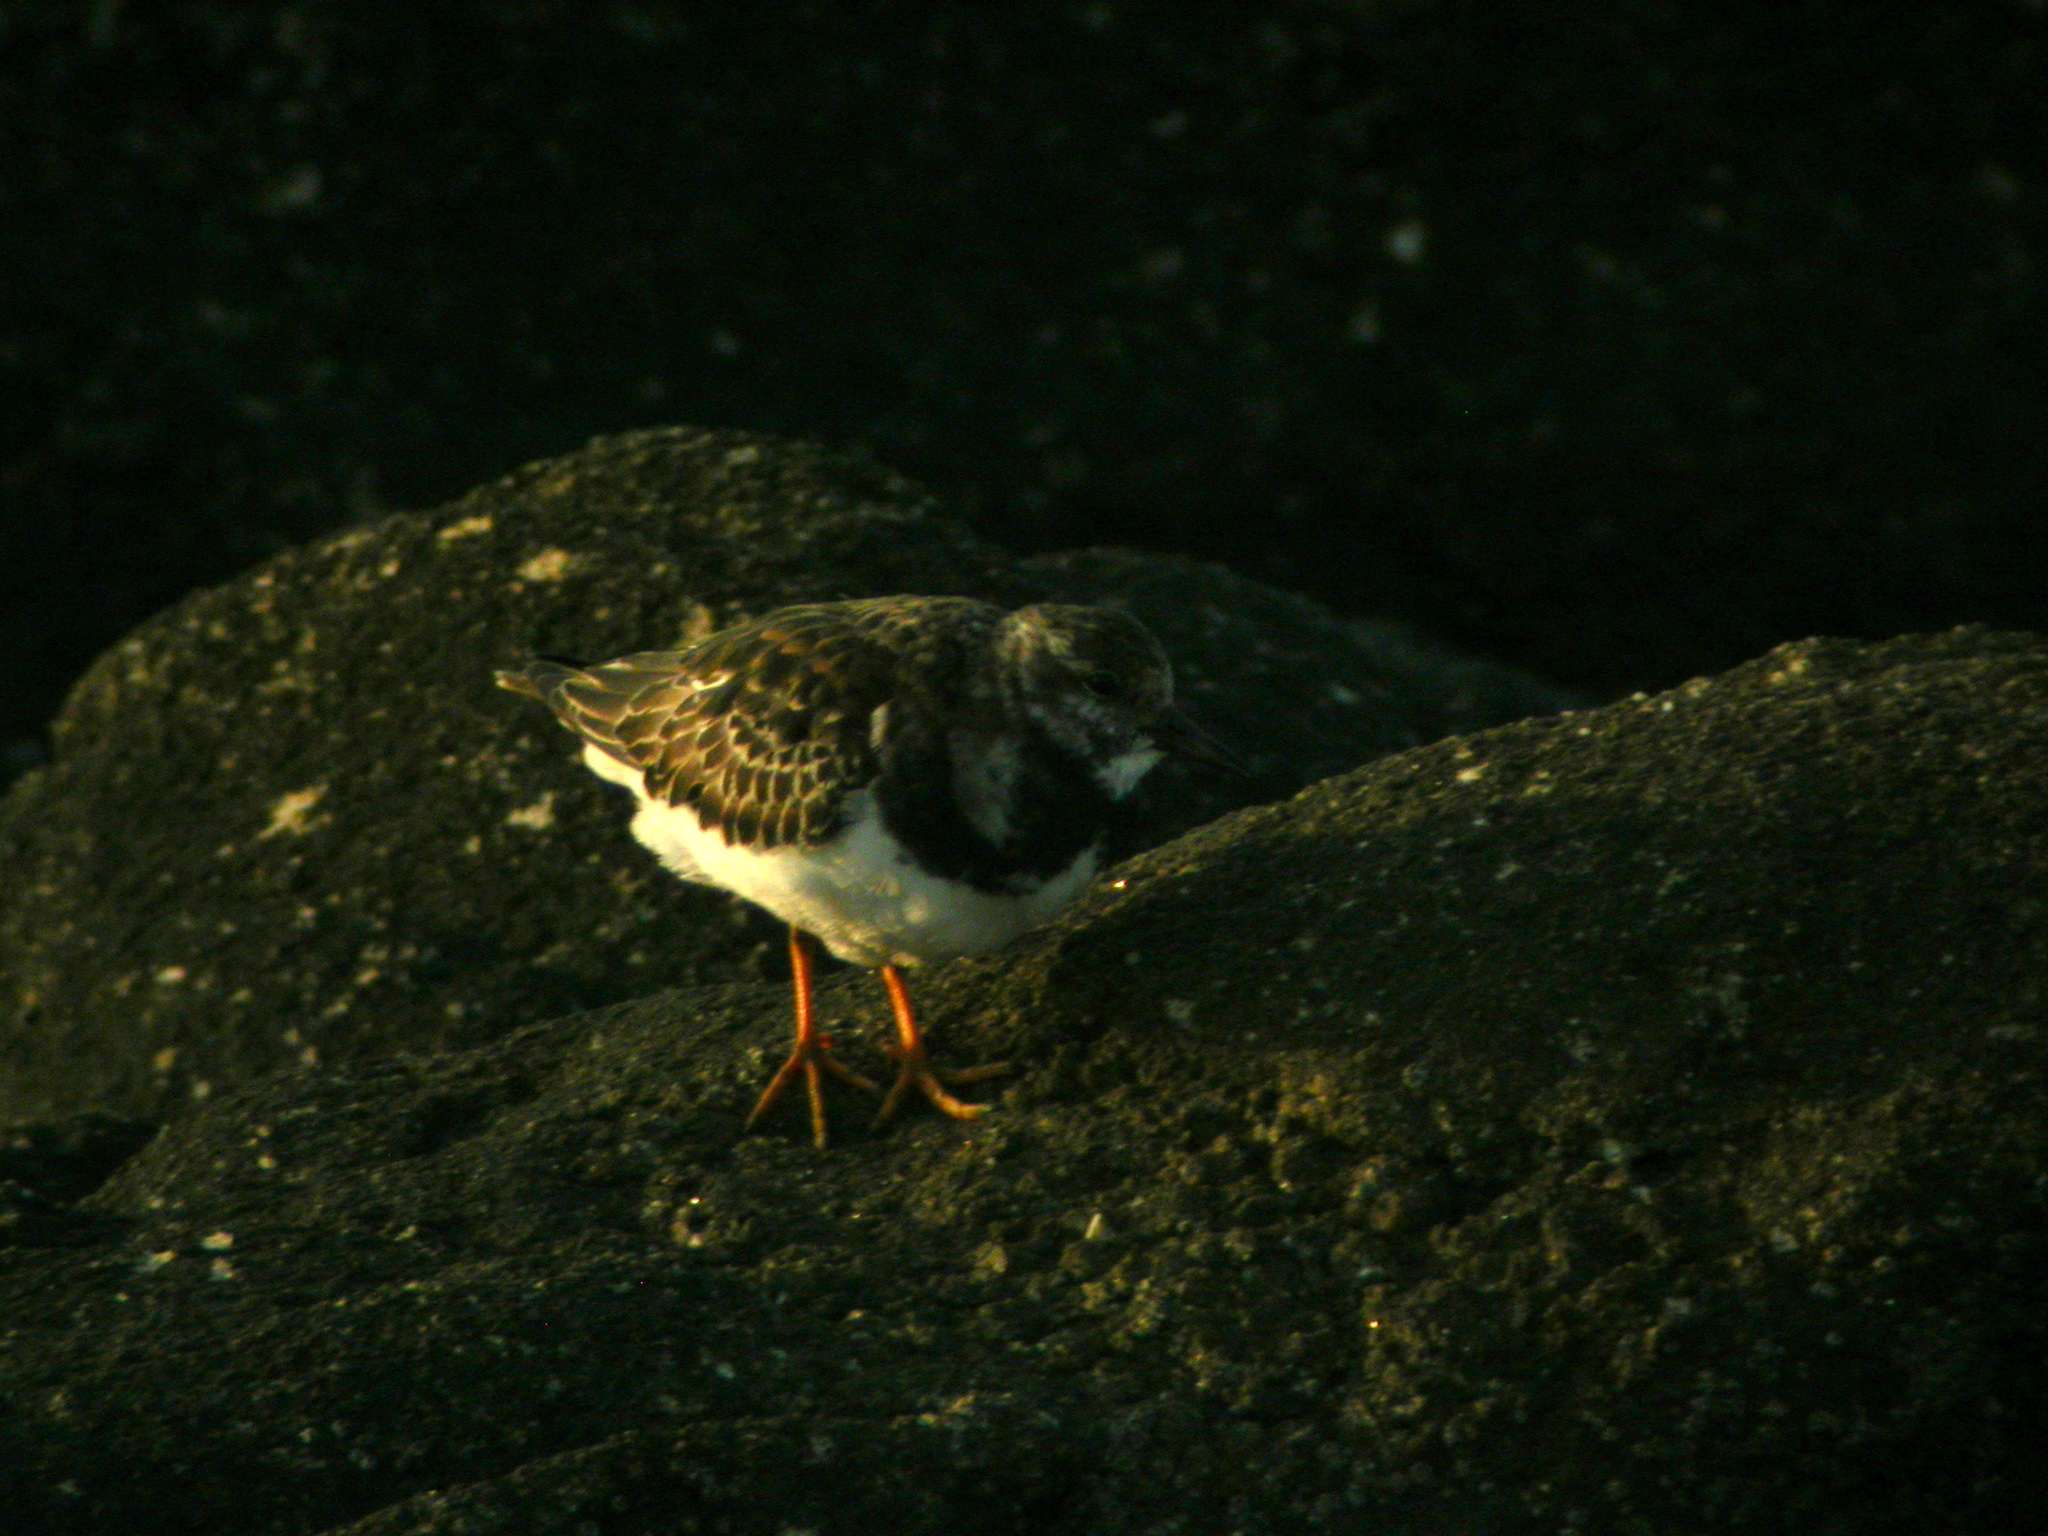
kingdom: Animalia
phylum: Chordata
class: Aves
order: Charadriiformes
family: Scolopacidae
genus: Arenaria
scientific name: Arenaria interpres
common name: Ruddy turnstone
